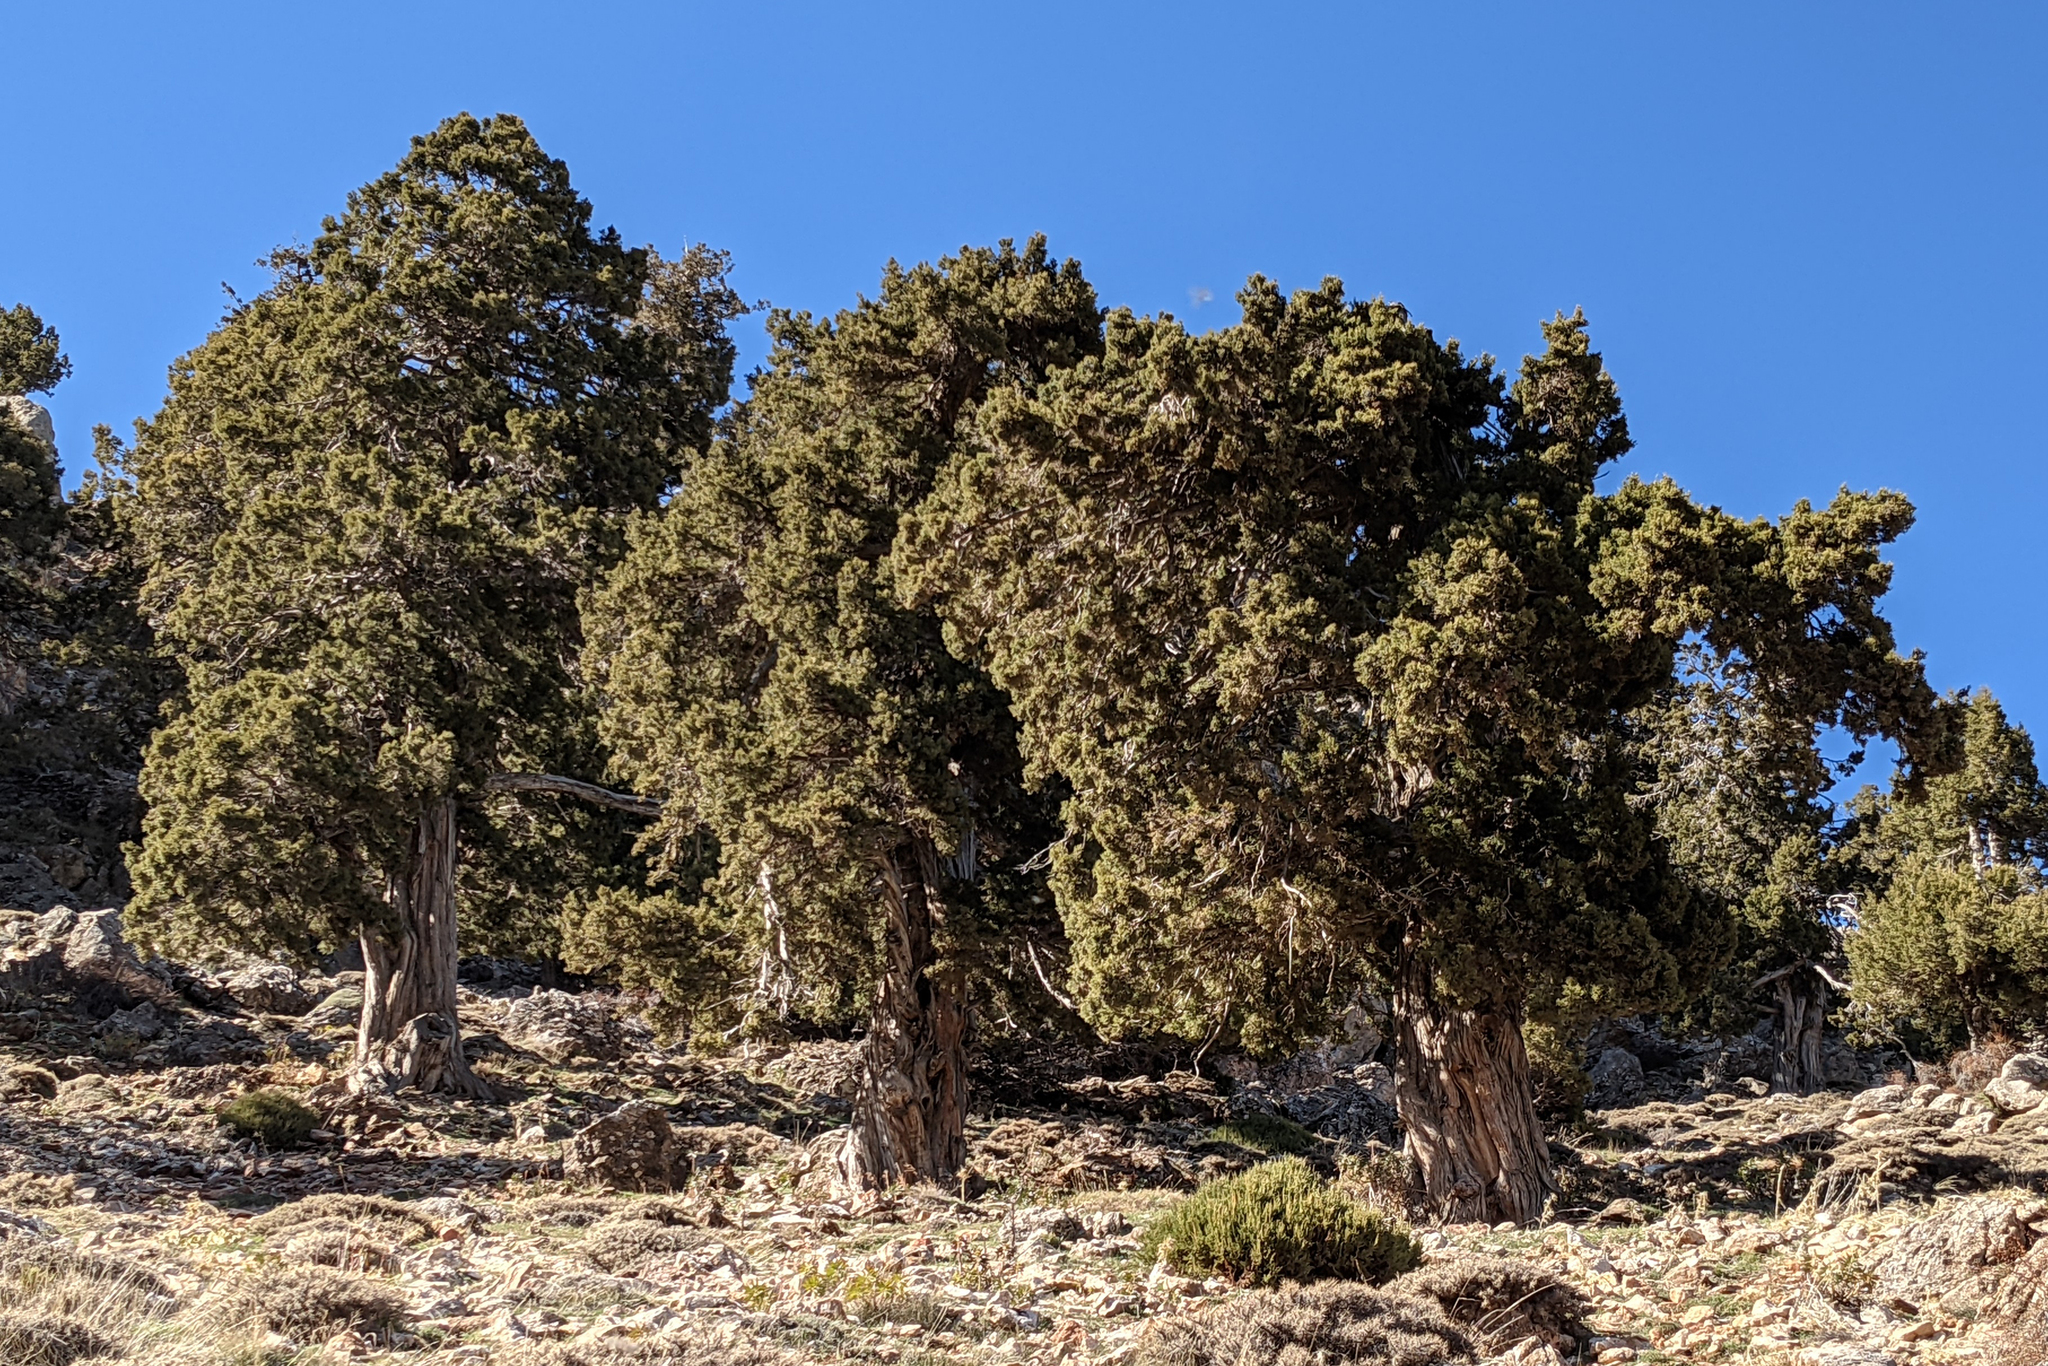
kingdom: Plantae
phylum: Tracheophyta
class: Pinopsida
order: Pinales
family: Cupressaceae
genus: Juniperus
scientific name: Juniperus excelsa
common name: Crimean juniper
